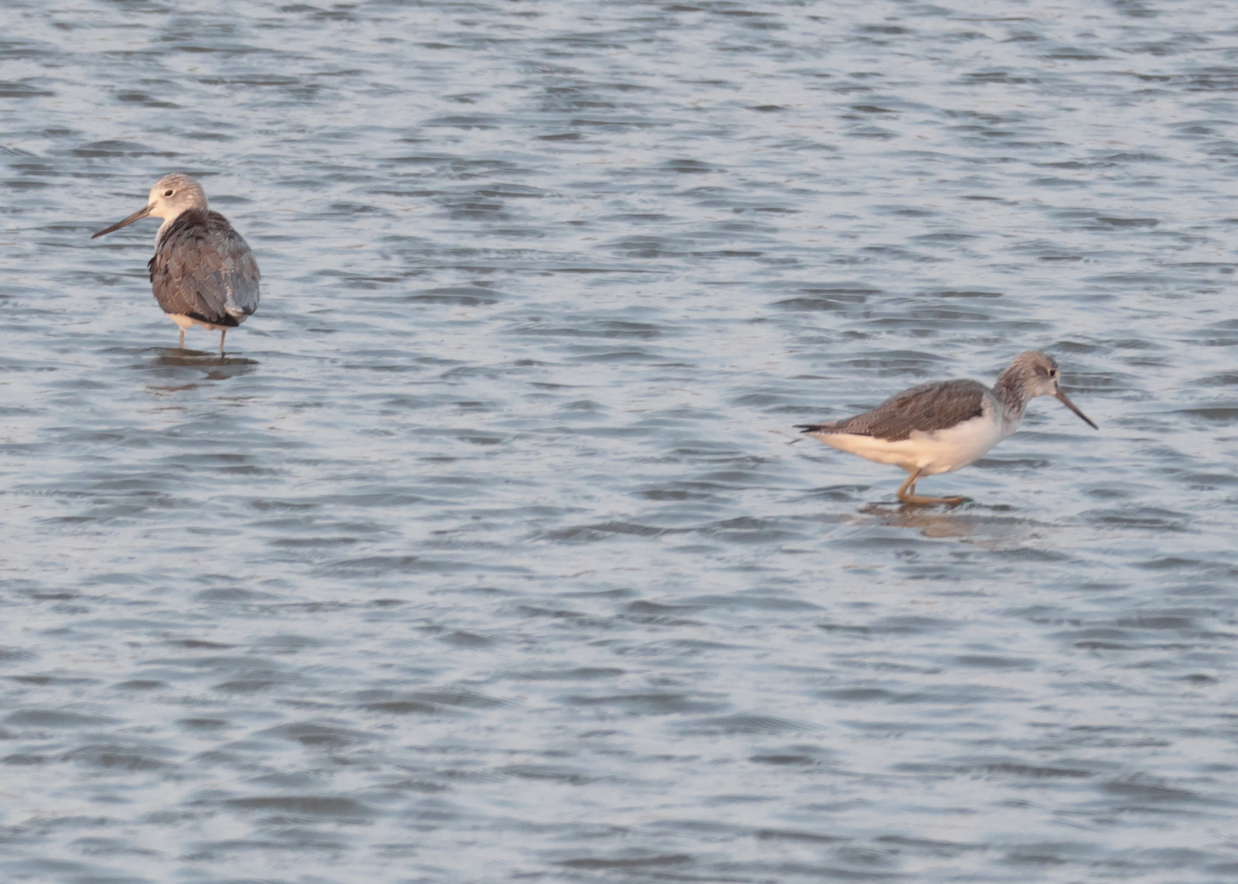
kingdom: Animalia
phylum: Chordata
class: Aves
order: Charadriiformes
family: Scolopacidae
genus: Tringa
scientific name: Tringa nebularia
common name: Common greenshank
